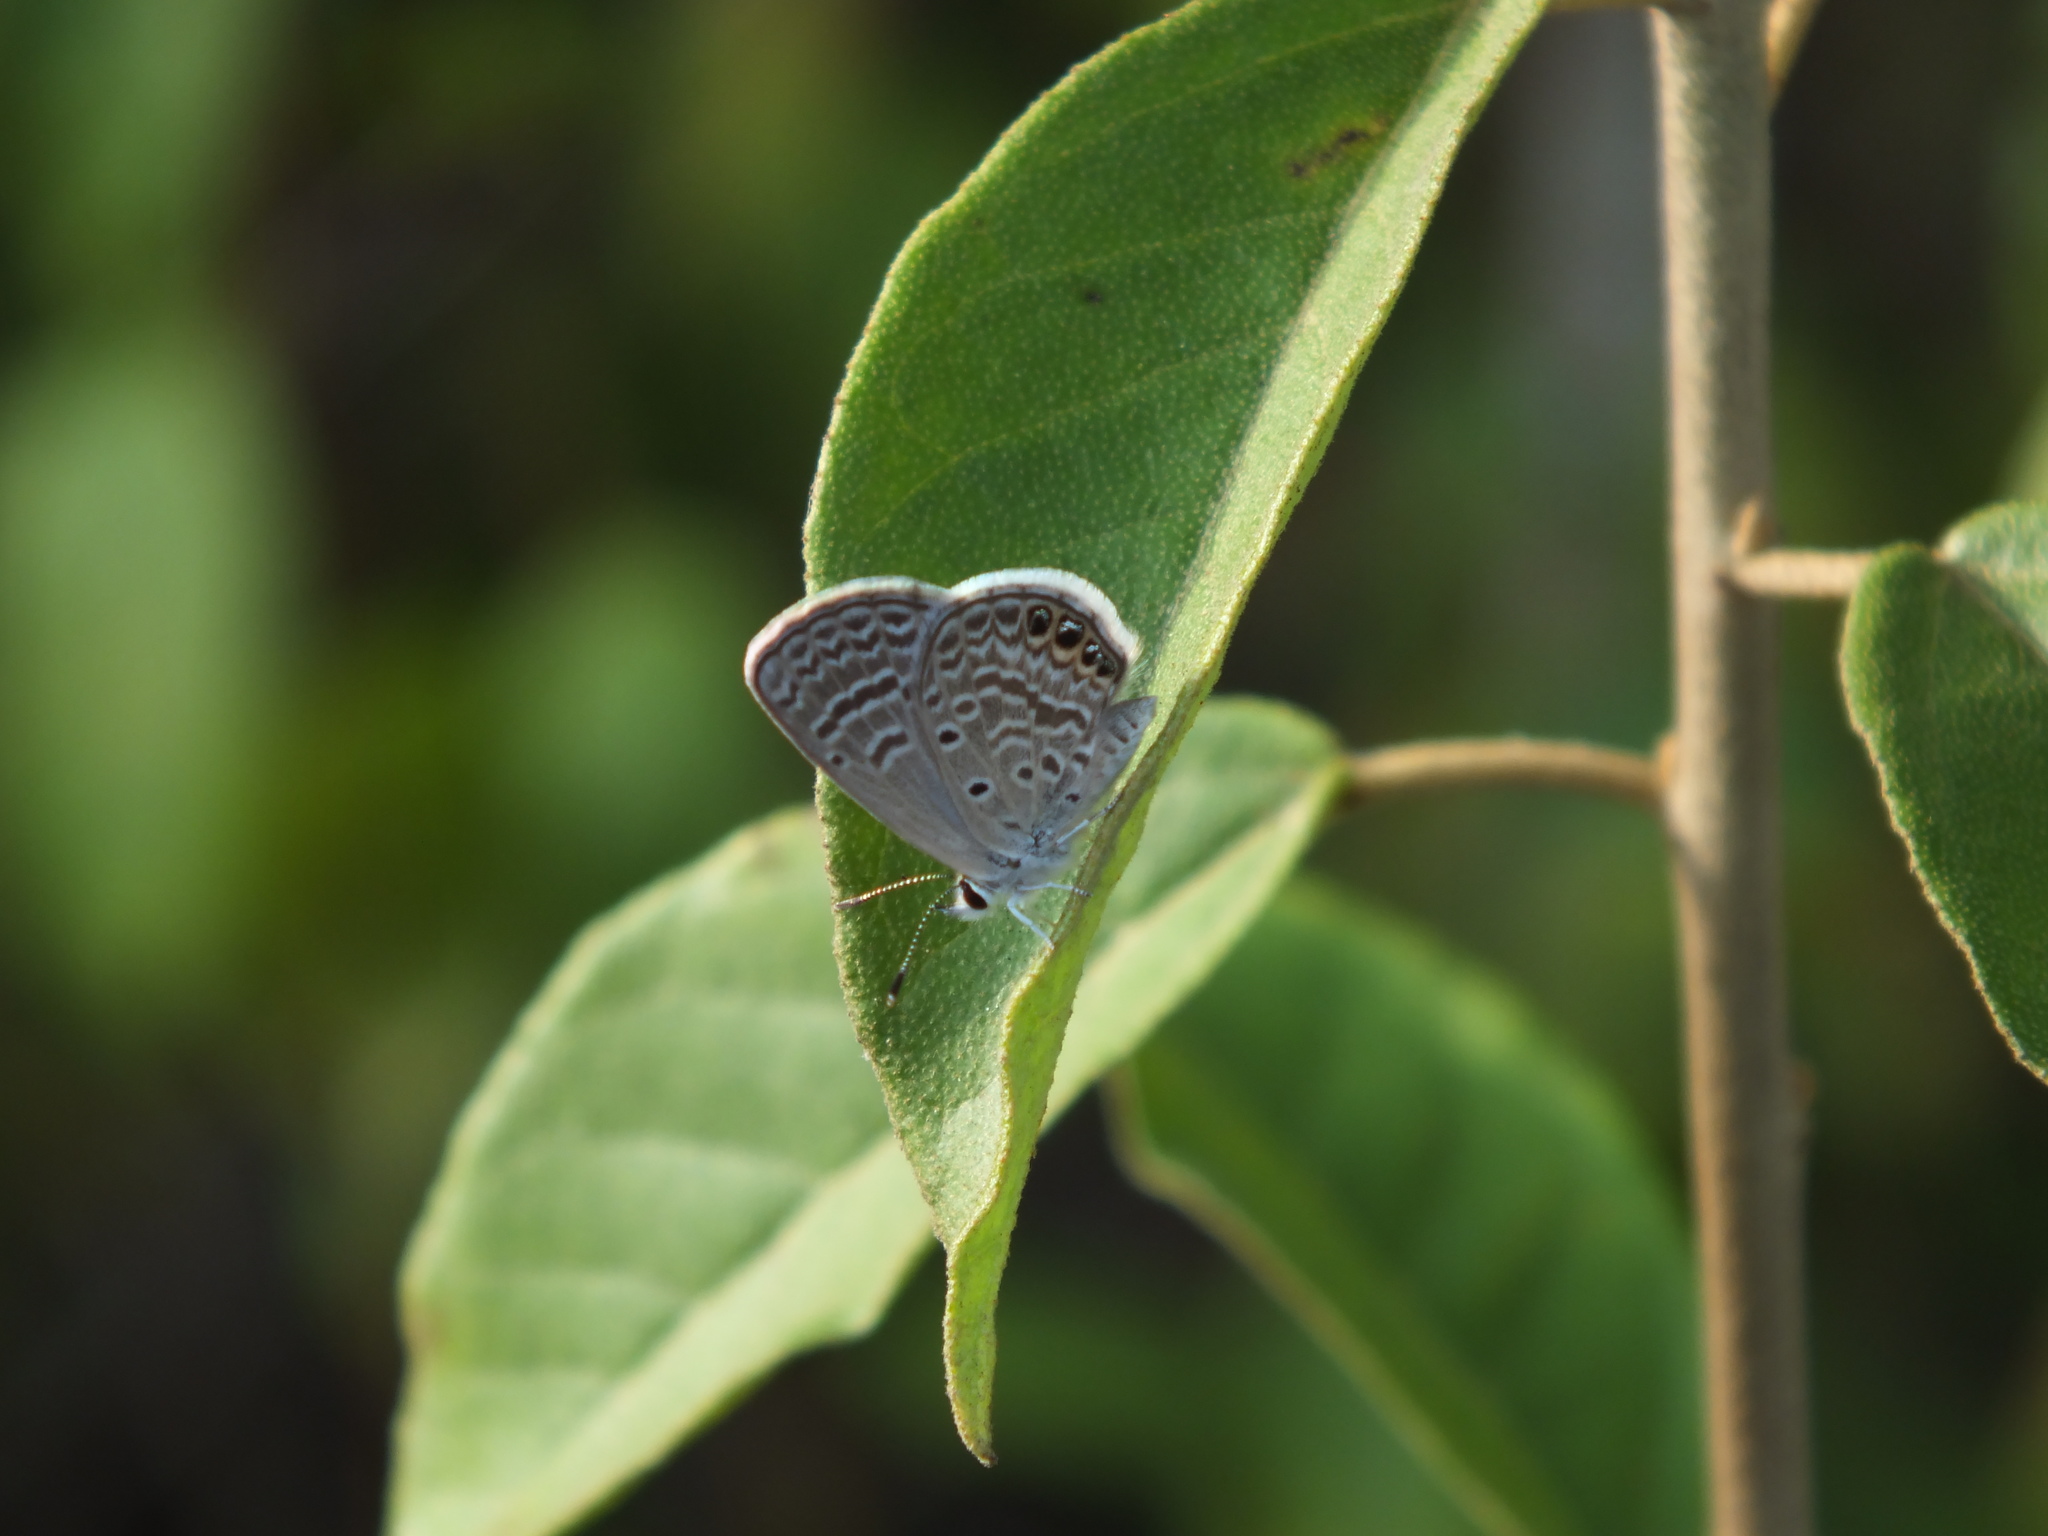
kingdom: Animalia
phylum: Arthropoda
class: Insecta
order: Lepidoptera
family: Lycaenidae
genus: Hemiargus
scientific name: Hemiargus ramon
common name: Ramon blue
